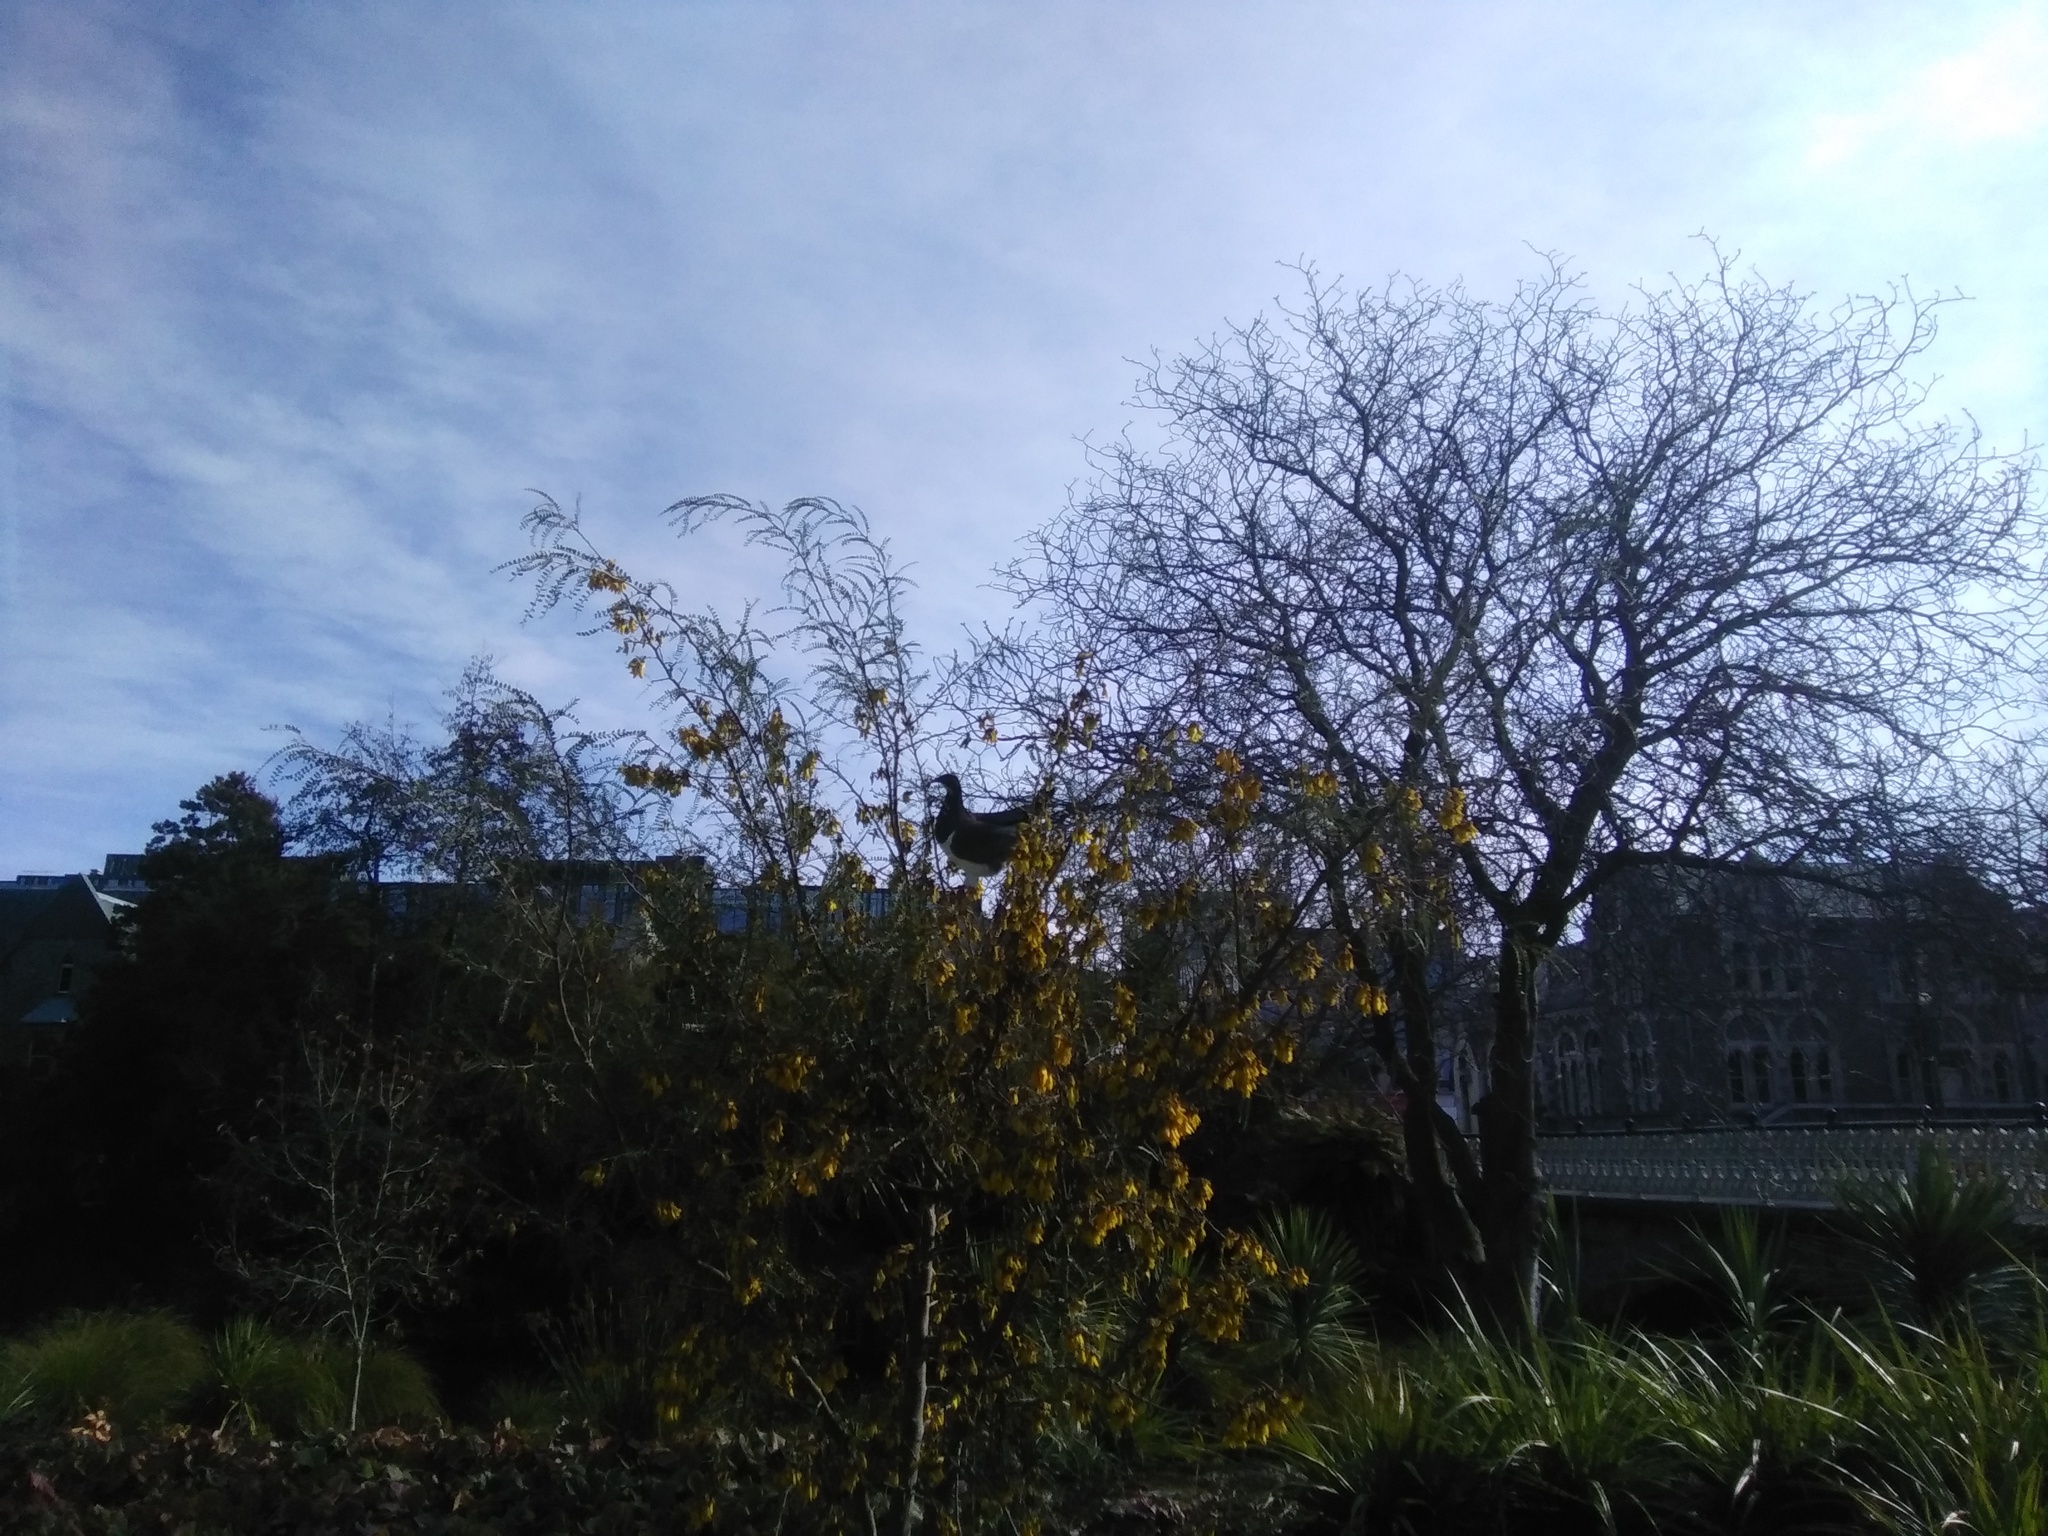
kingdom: Animalia
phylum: Chordata
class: Aves
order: Columbiformes
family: Columbidae
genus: Hemiphaga
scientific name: Hemiphaga novaeseelandiae
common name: New zealand pigeon
